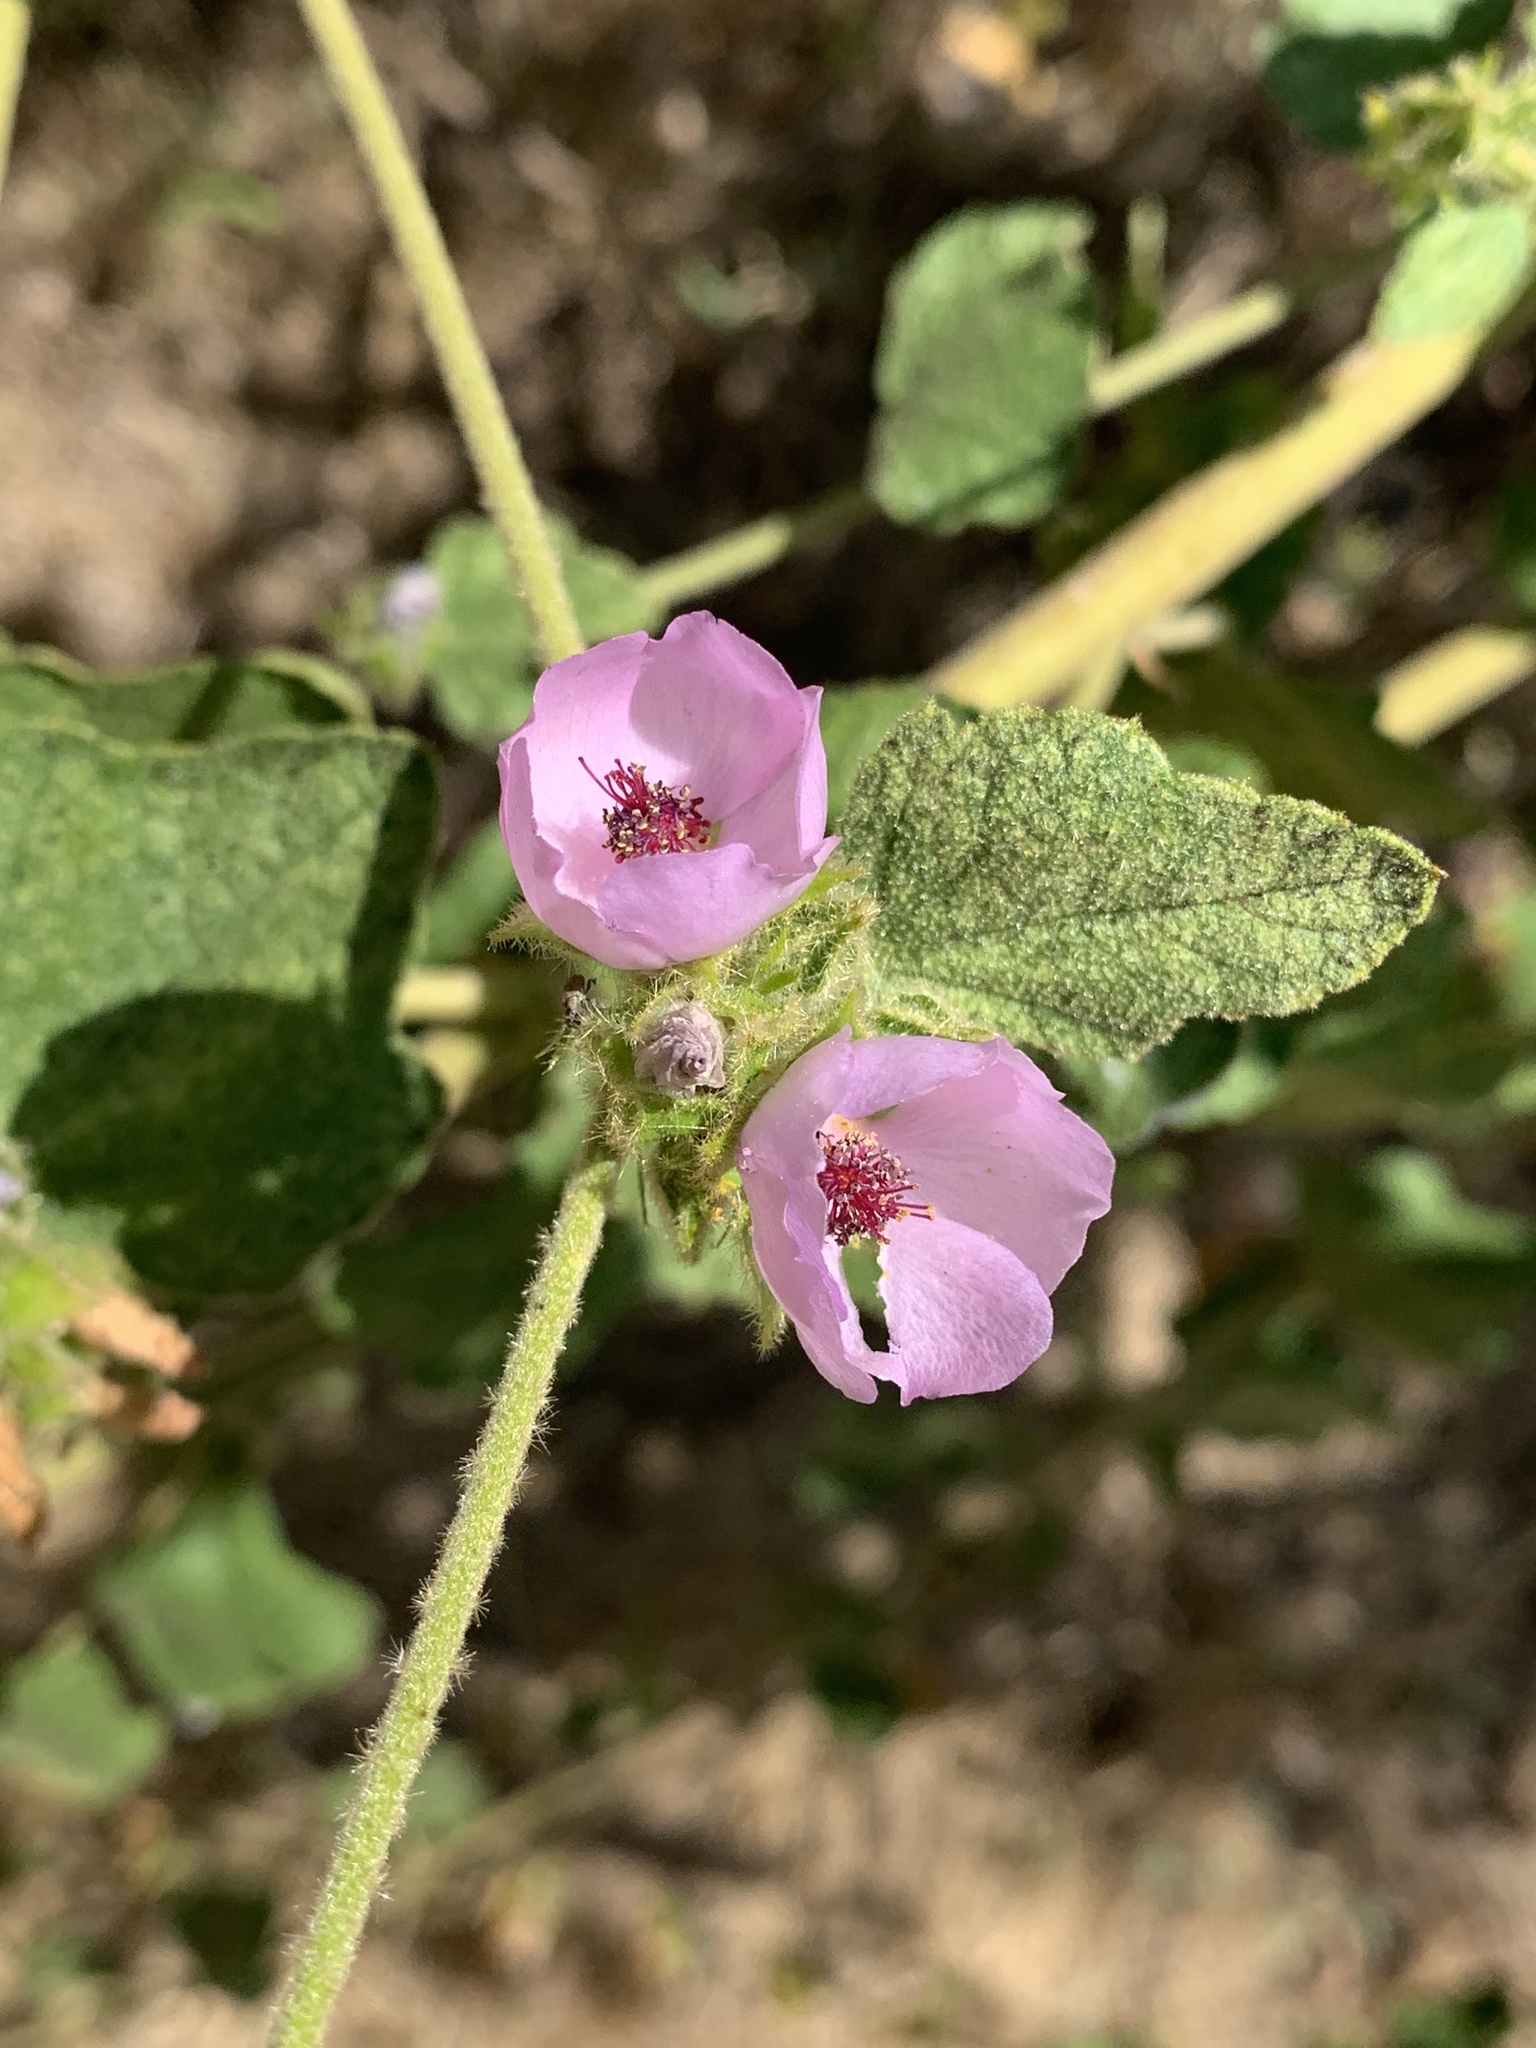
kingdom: Plantae
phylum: Tracheophyta
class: Magnoliopsida
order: Malvales
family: Malvaceae
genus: Malacothamnus
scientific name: Malacothamnus densiflorus
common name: Yellow-stem bush-mallow
